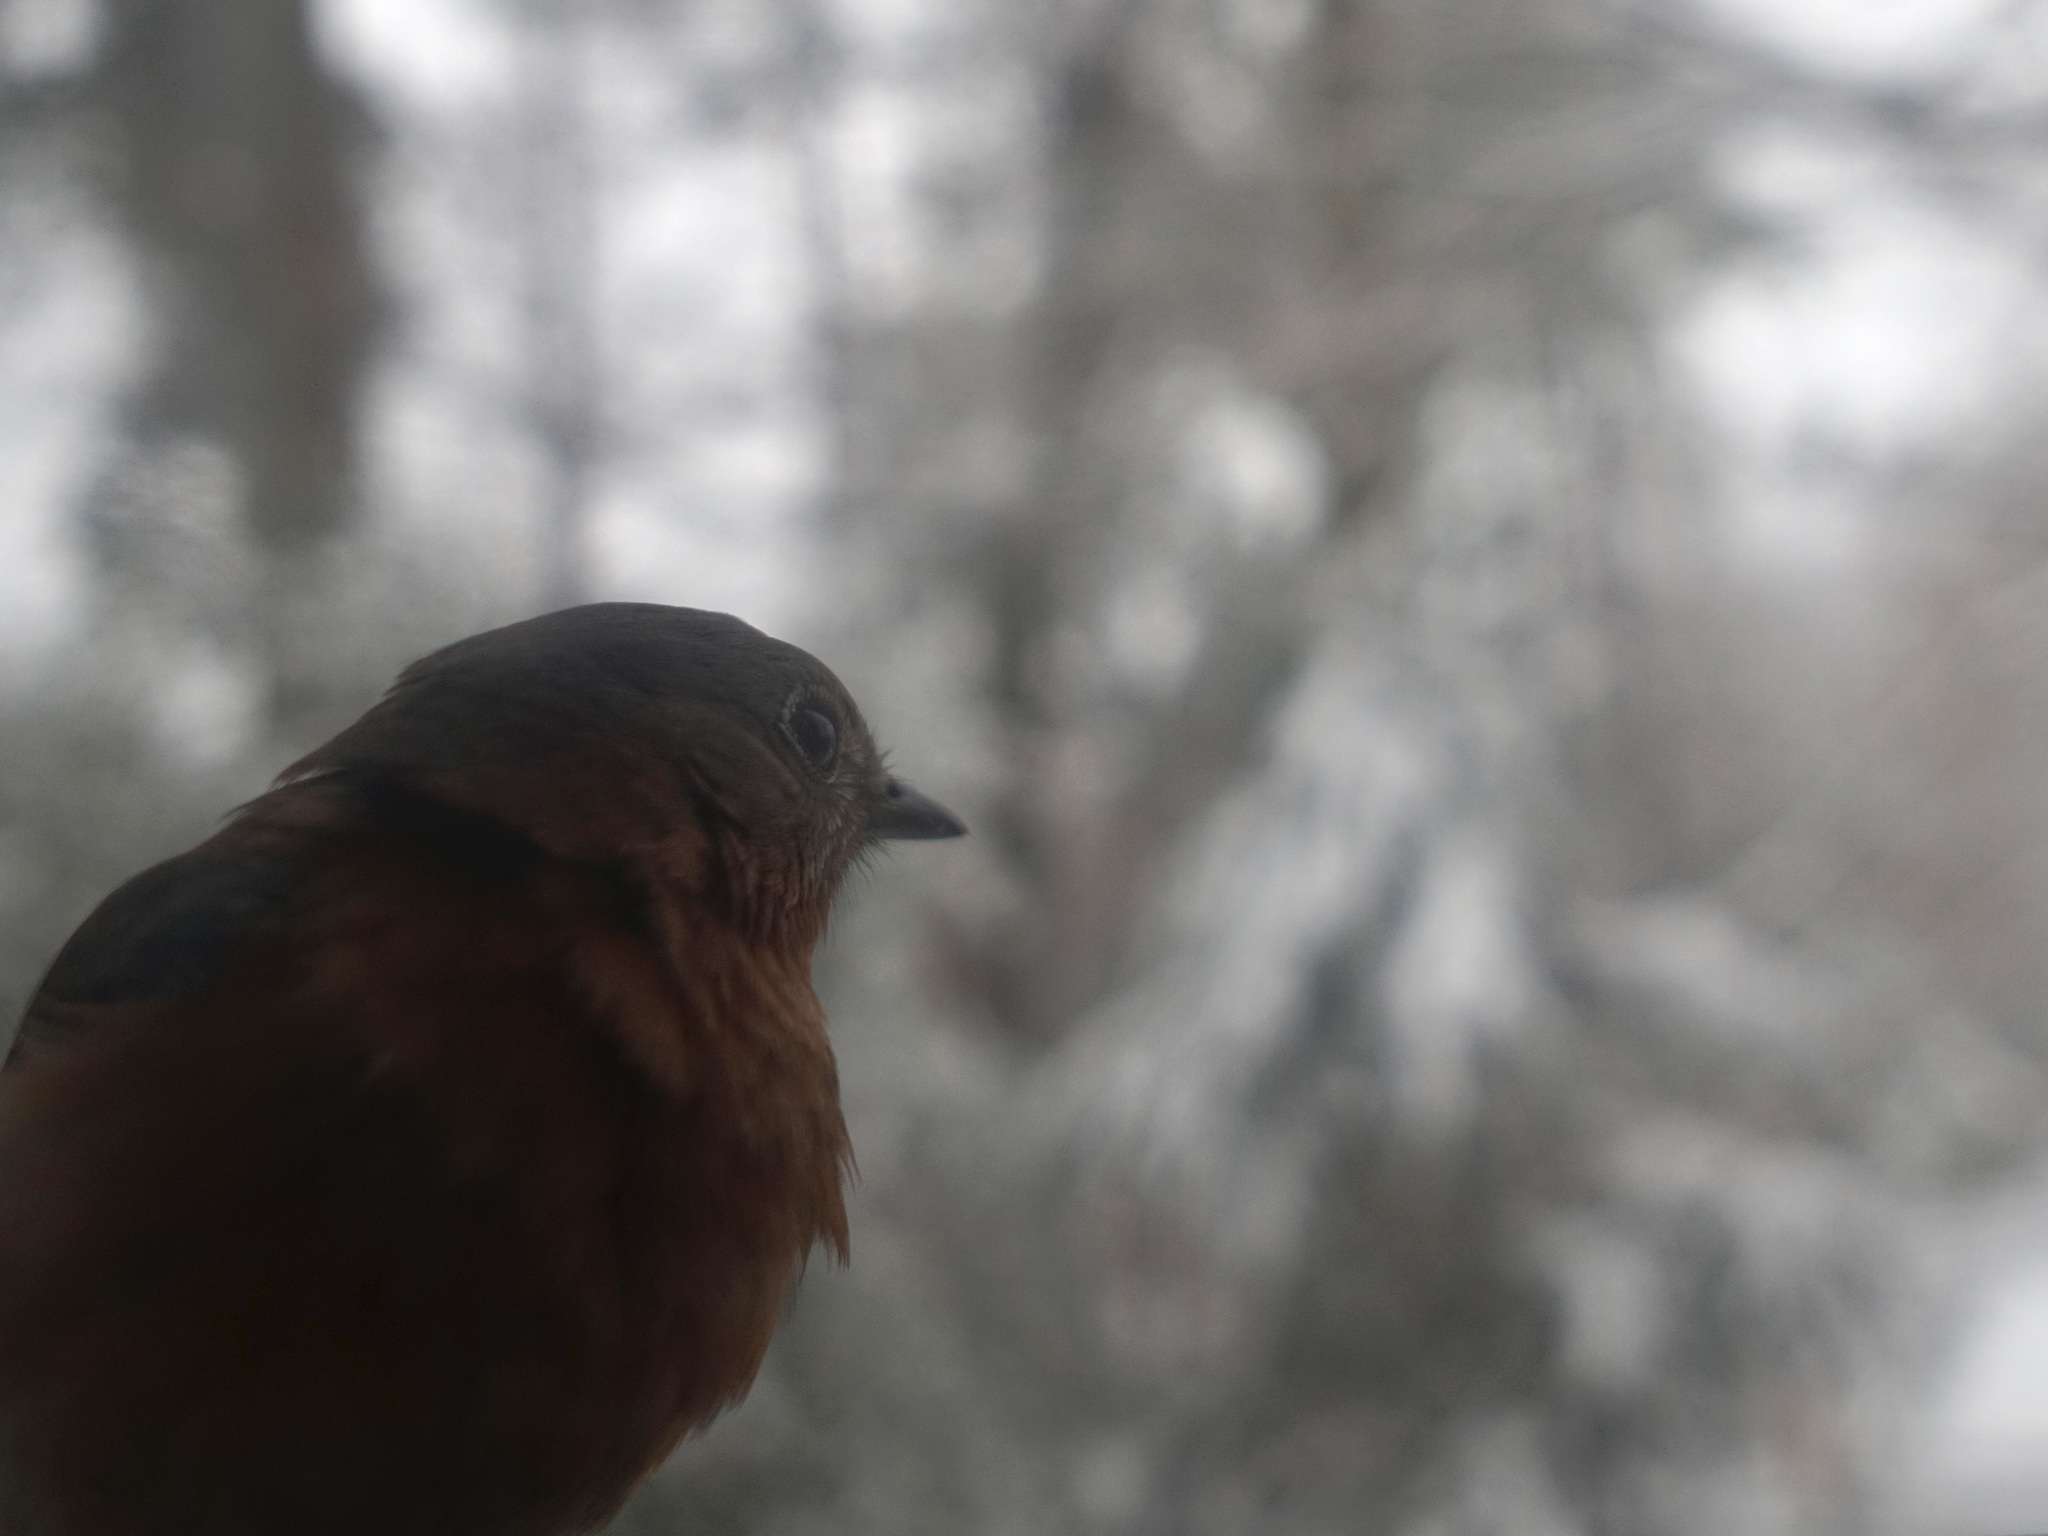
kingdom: Animalia
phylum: Chordata
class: Aves
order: Passeriformes
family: Turdidae
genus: Sialia
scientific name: Sialia sialis
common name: Eastern bluebird
